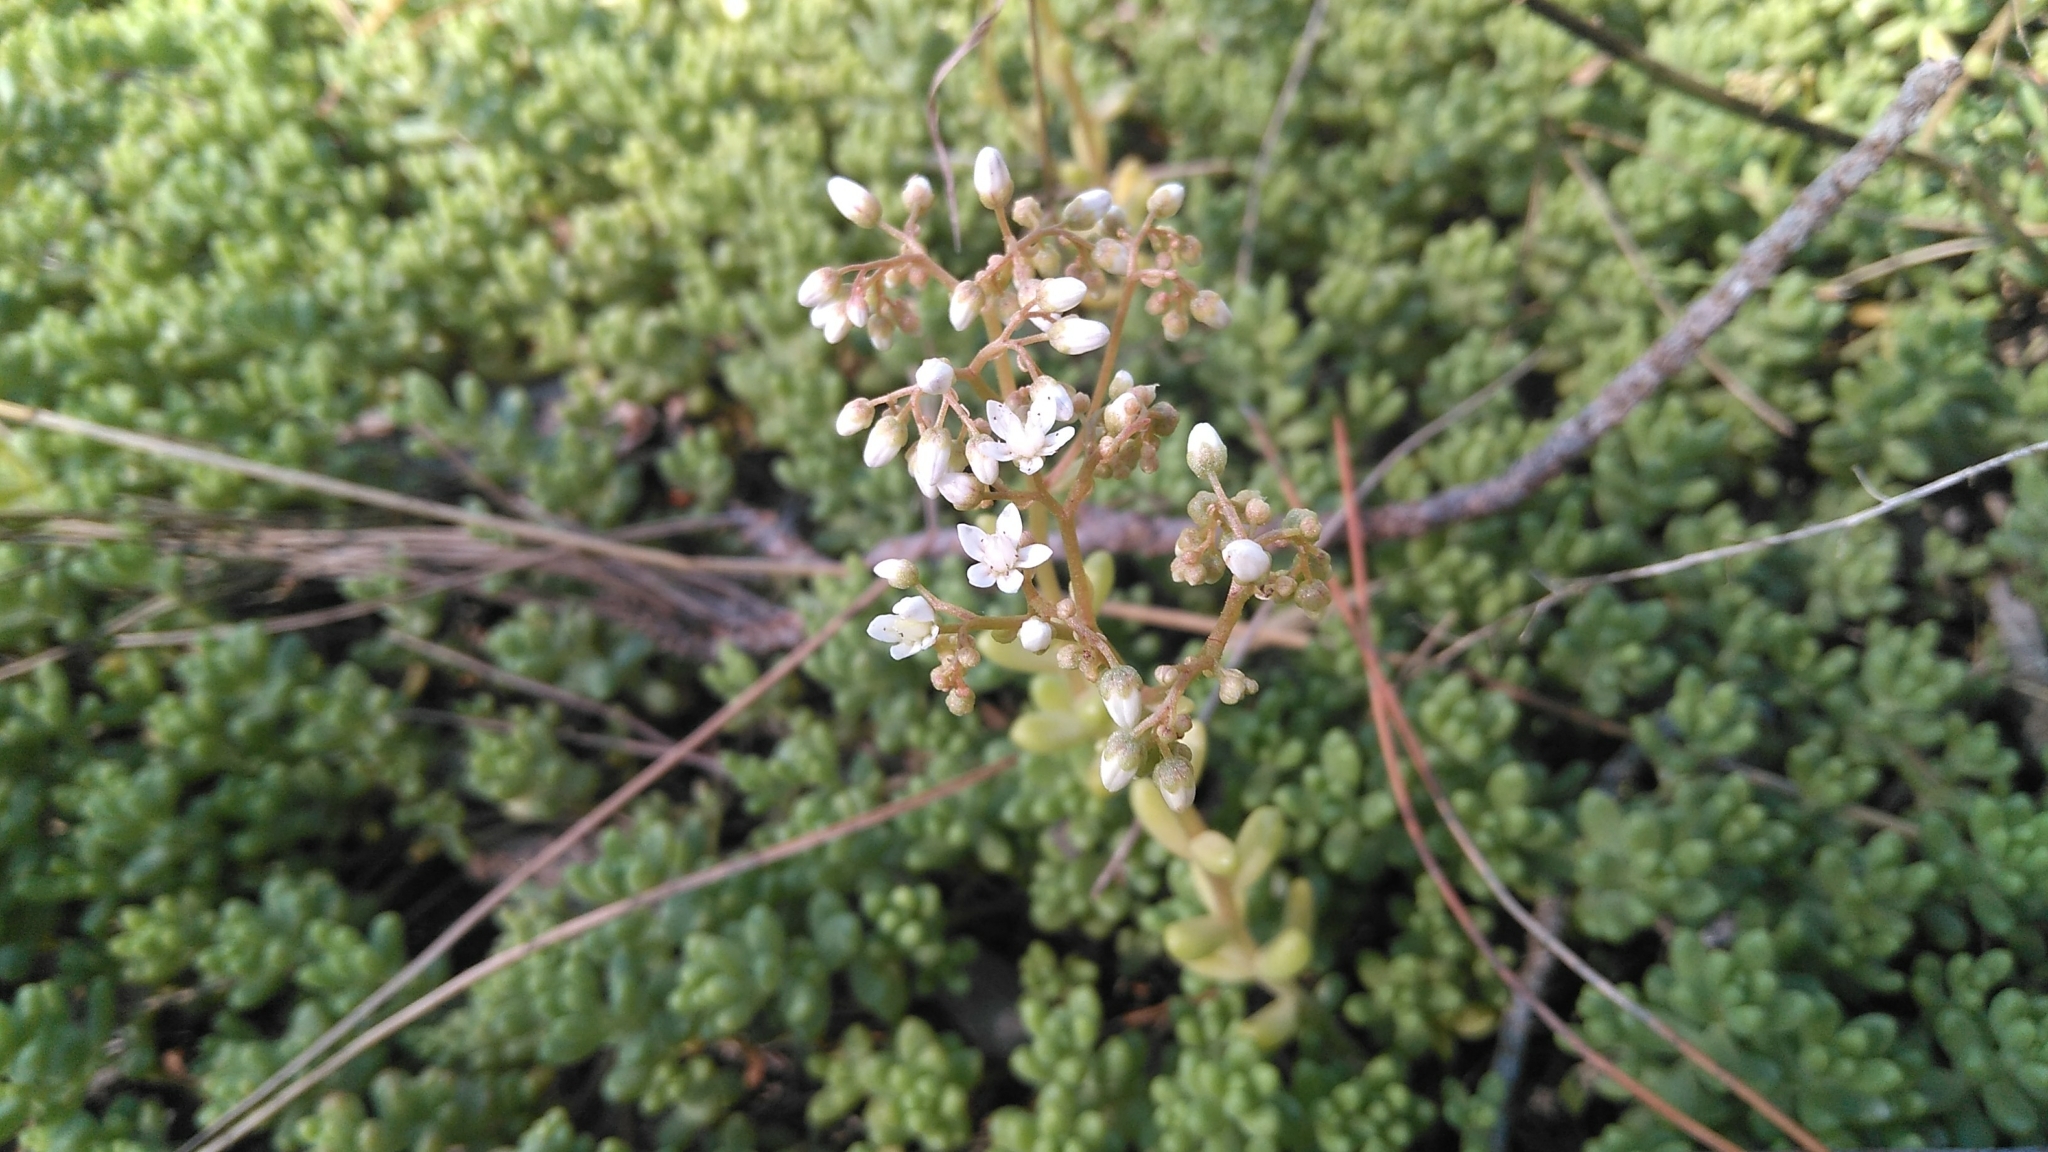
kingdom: Plantae
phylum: Tracheophyta
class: Magnoliopsida
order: Saxifragales
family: Crassulaceae
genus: Sedum
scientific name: Sedum album
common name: White stonecrop
